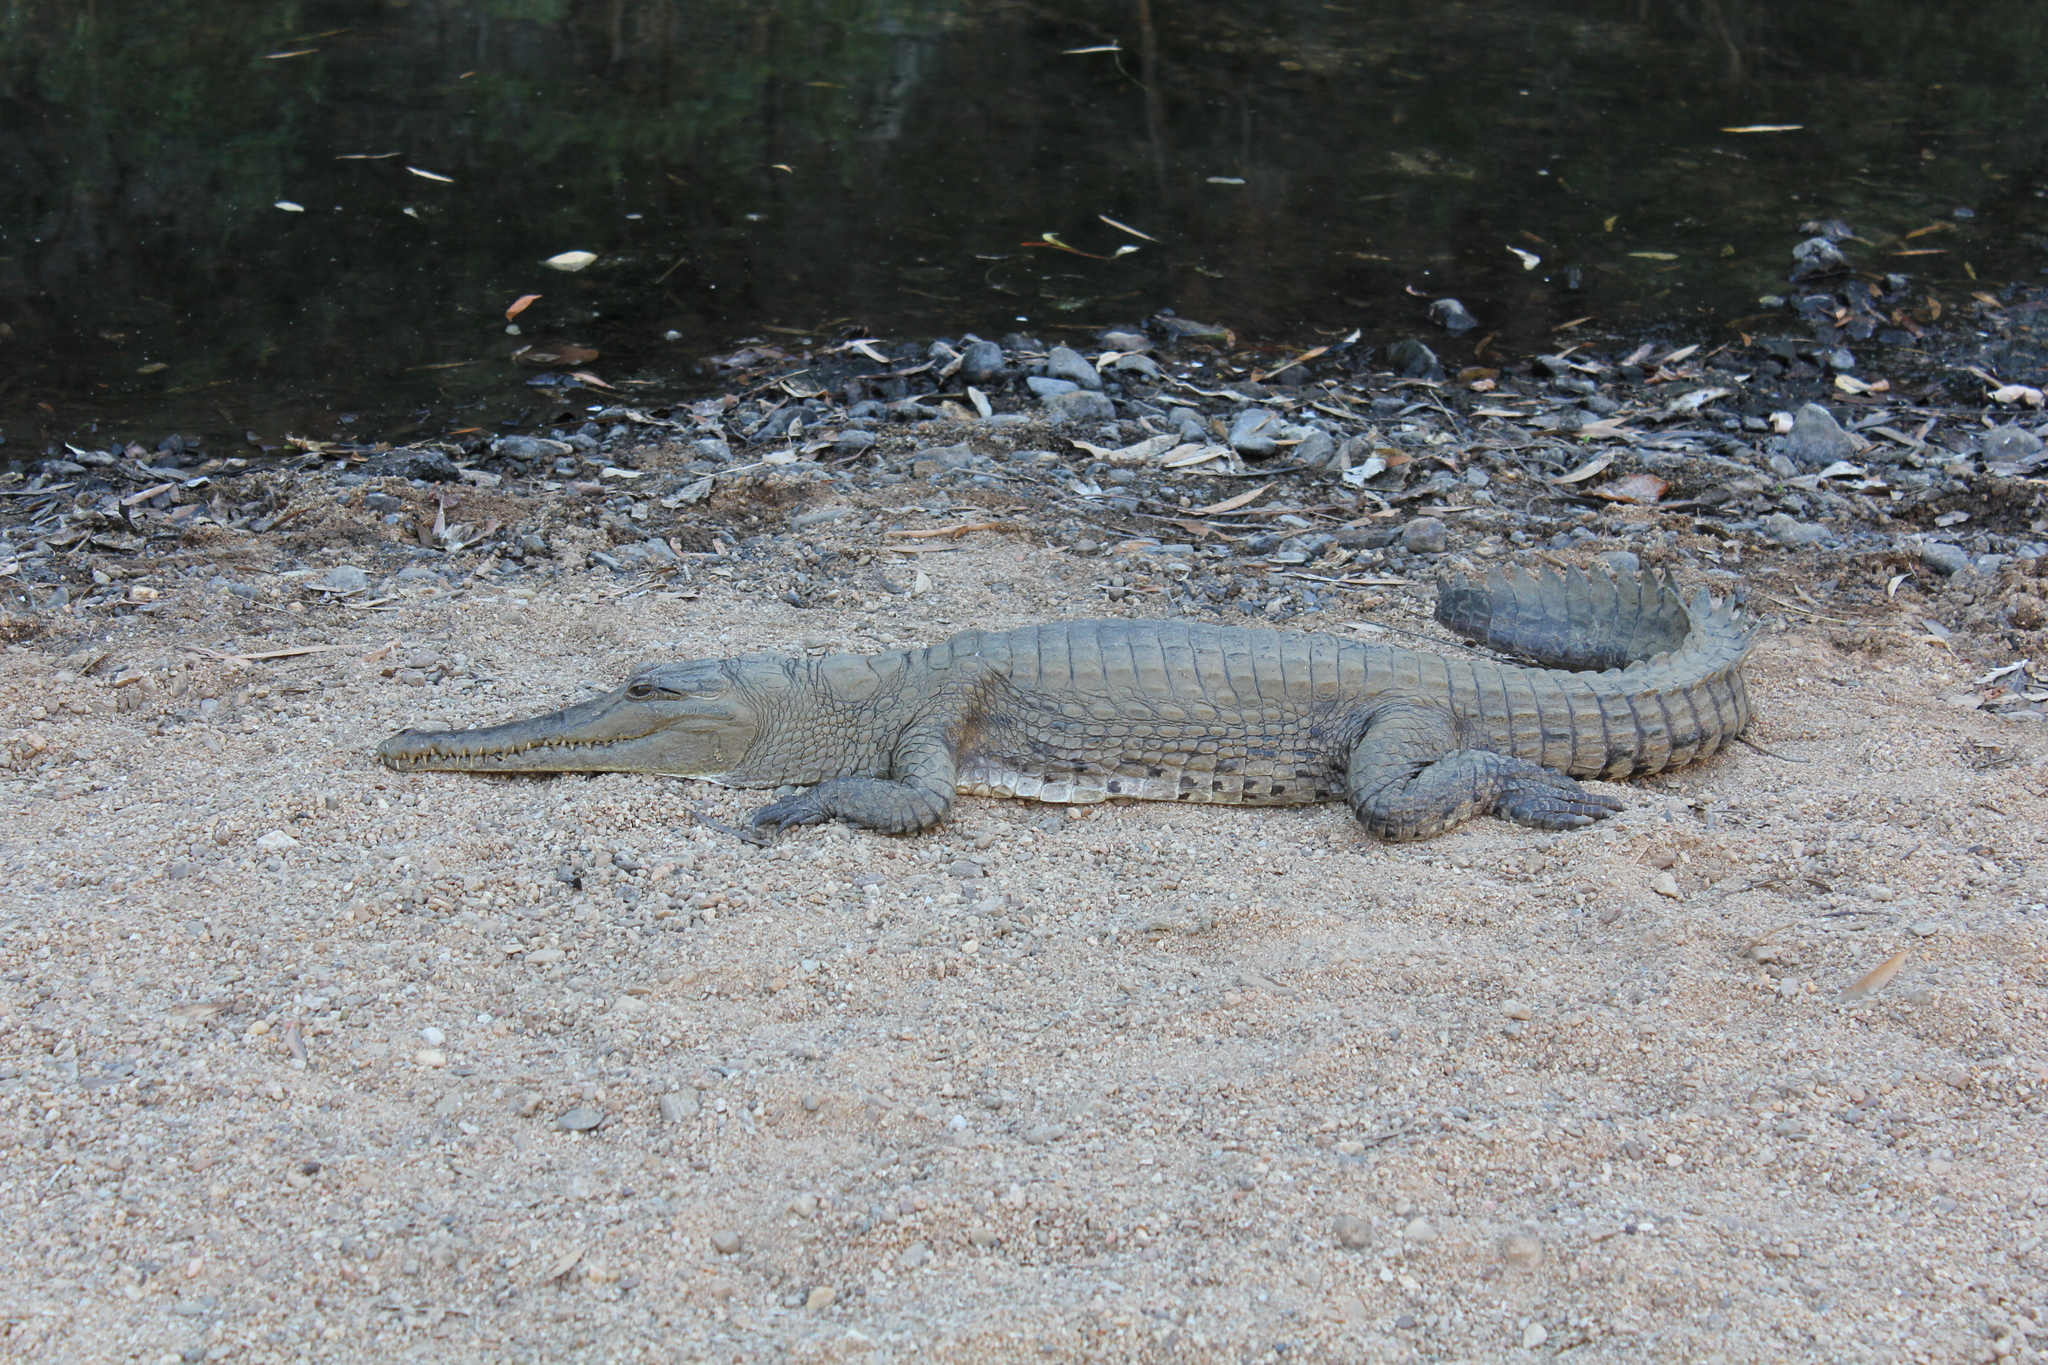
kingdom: Animalia
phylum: Chordata
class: Crocodylia
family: Crocodylidae
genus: Crocodylus
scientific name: Crocodylus johnsoni
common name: Freshwater crocodile
